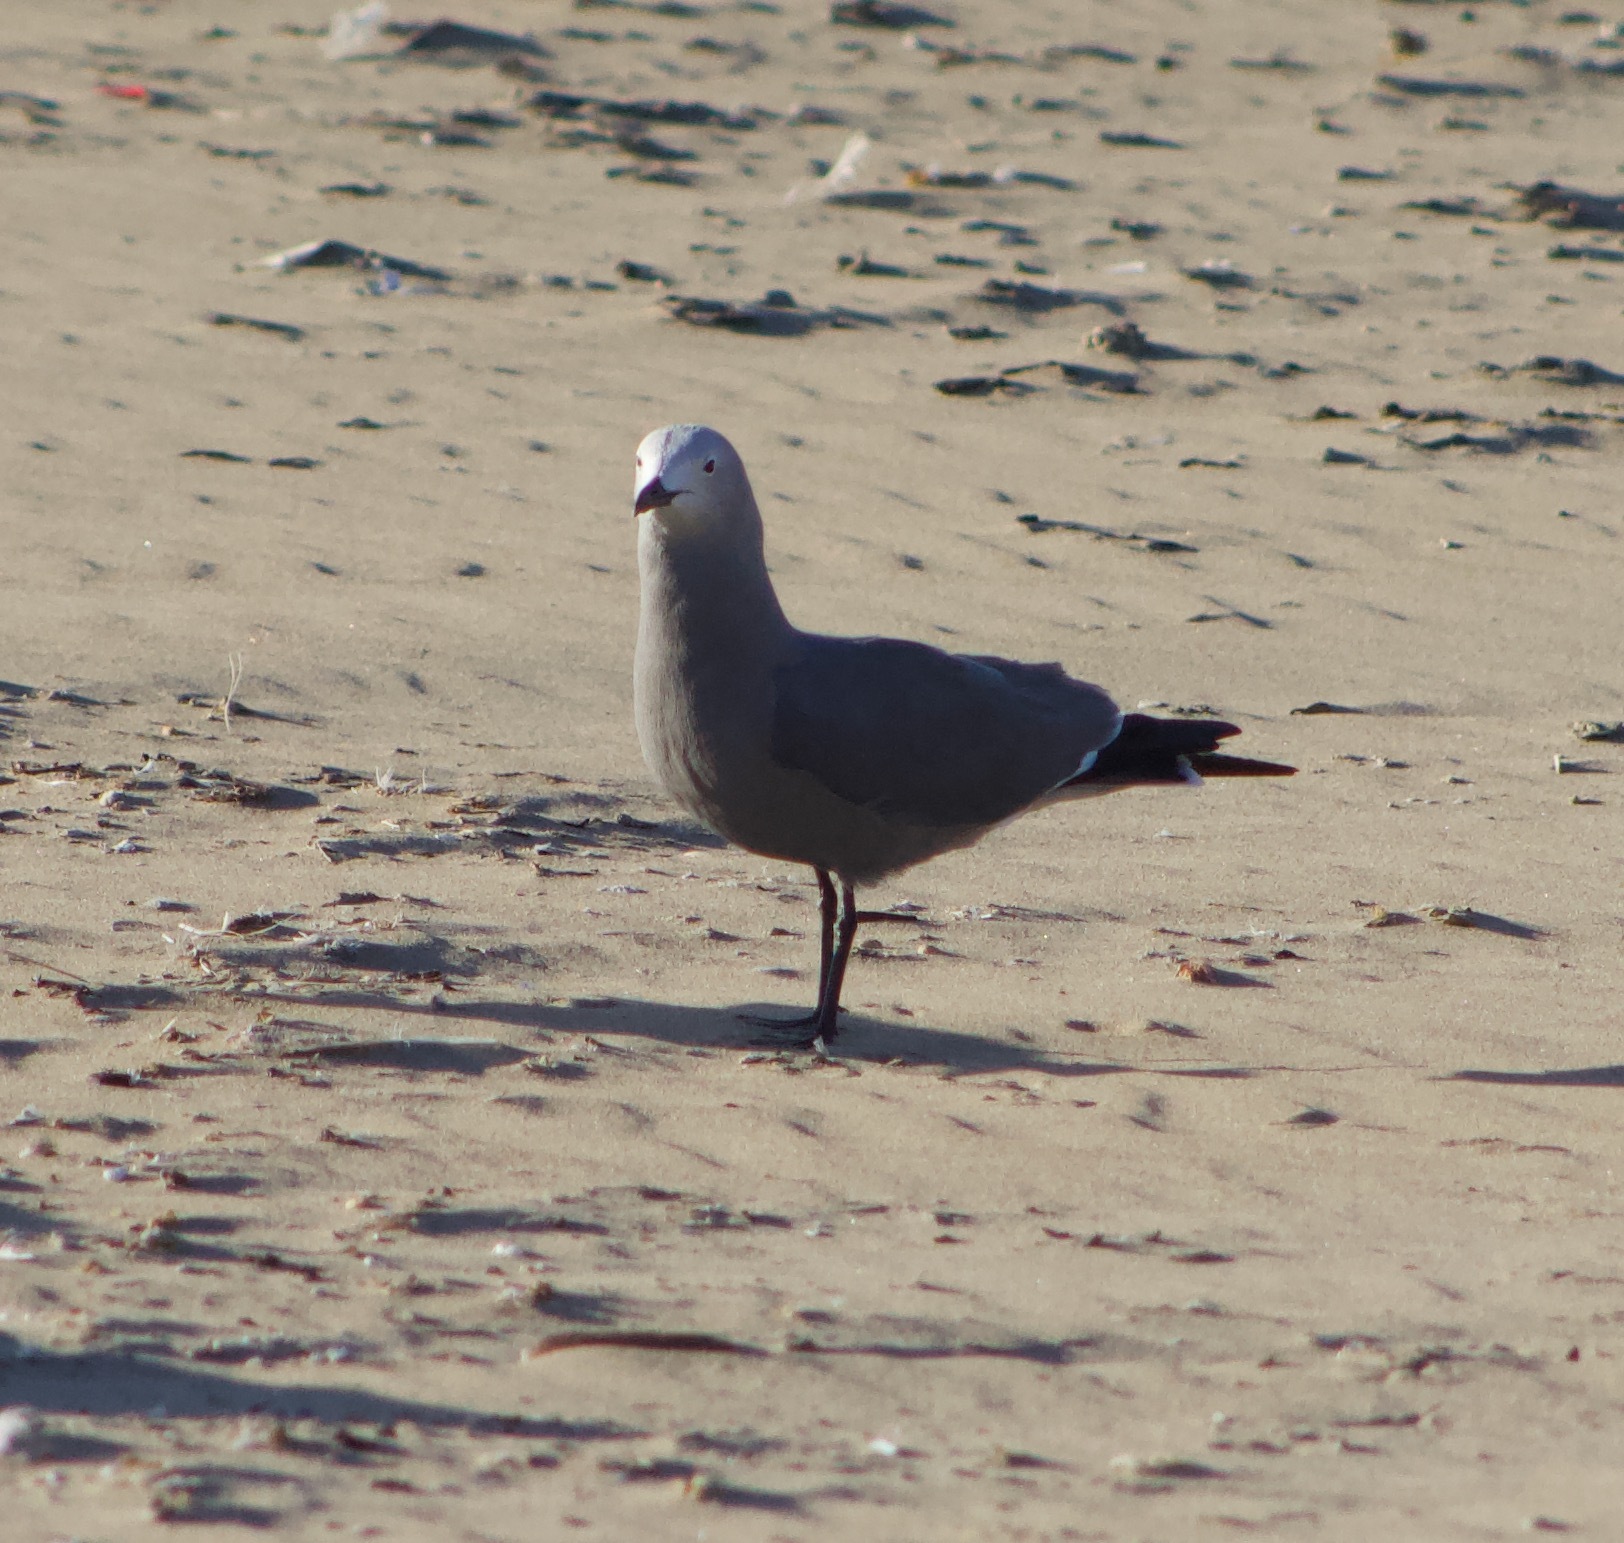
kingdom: Animalia
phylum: Chordata
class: Aves
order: Charadriiformes
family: Laridae
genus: Leucophaeus
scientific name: Leucophaeus modestus
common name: Gray gull
